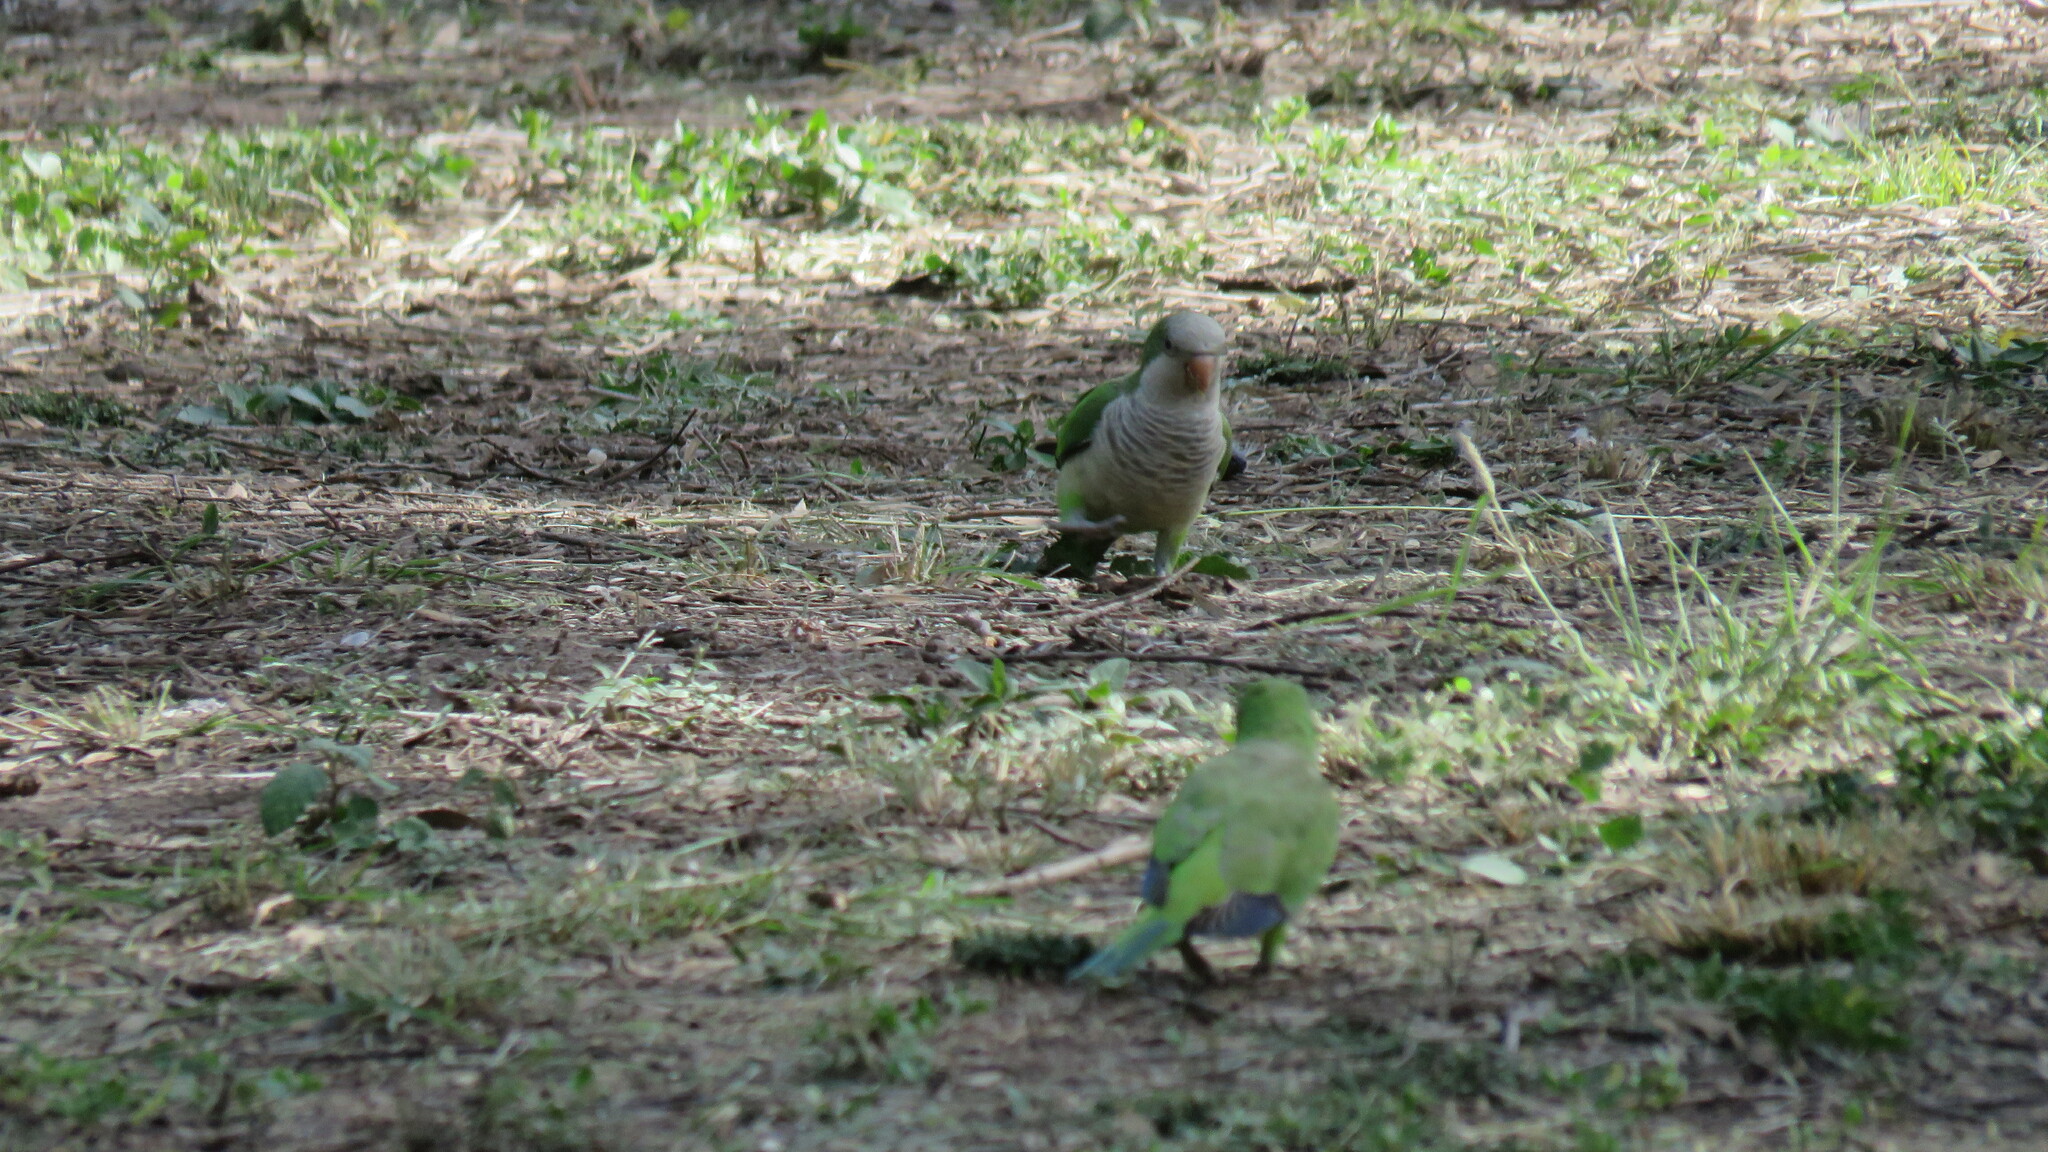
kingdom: Animalia
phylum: Chordata
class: Aves
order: Psittaciformes
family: Psittacidae
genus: Myiopsitta
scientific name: Myiopsitta monachus
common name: Monk parakeet
